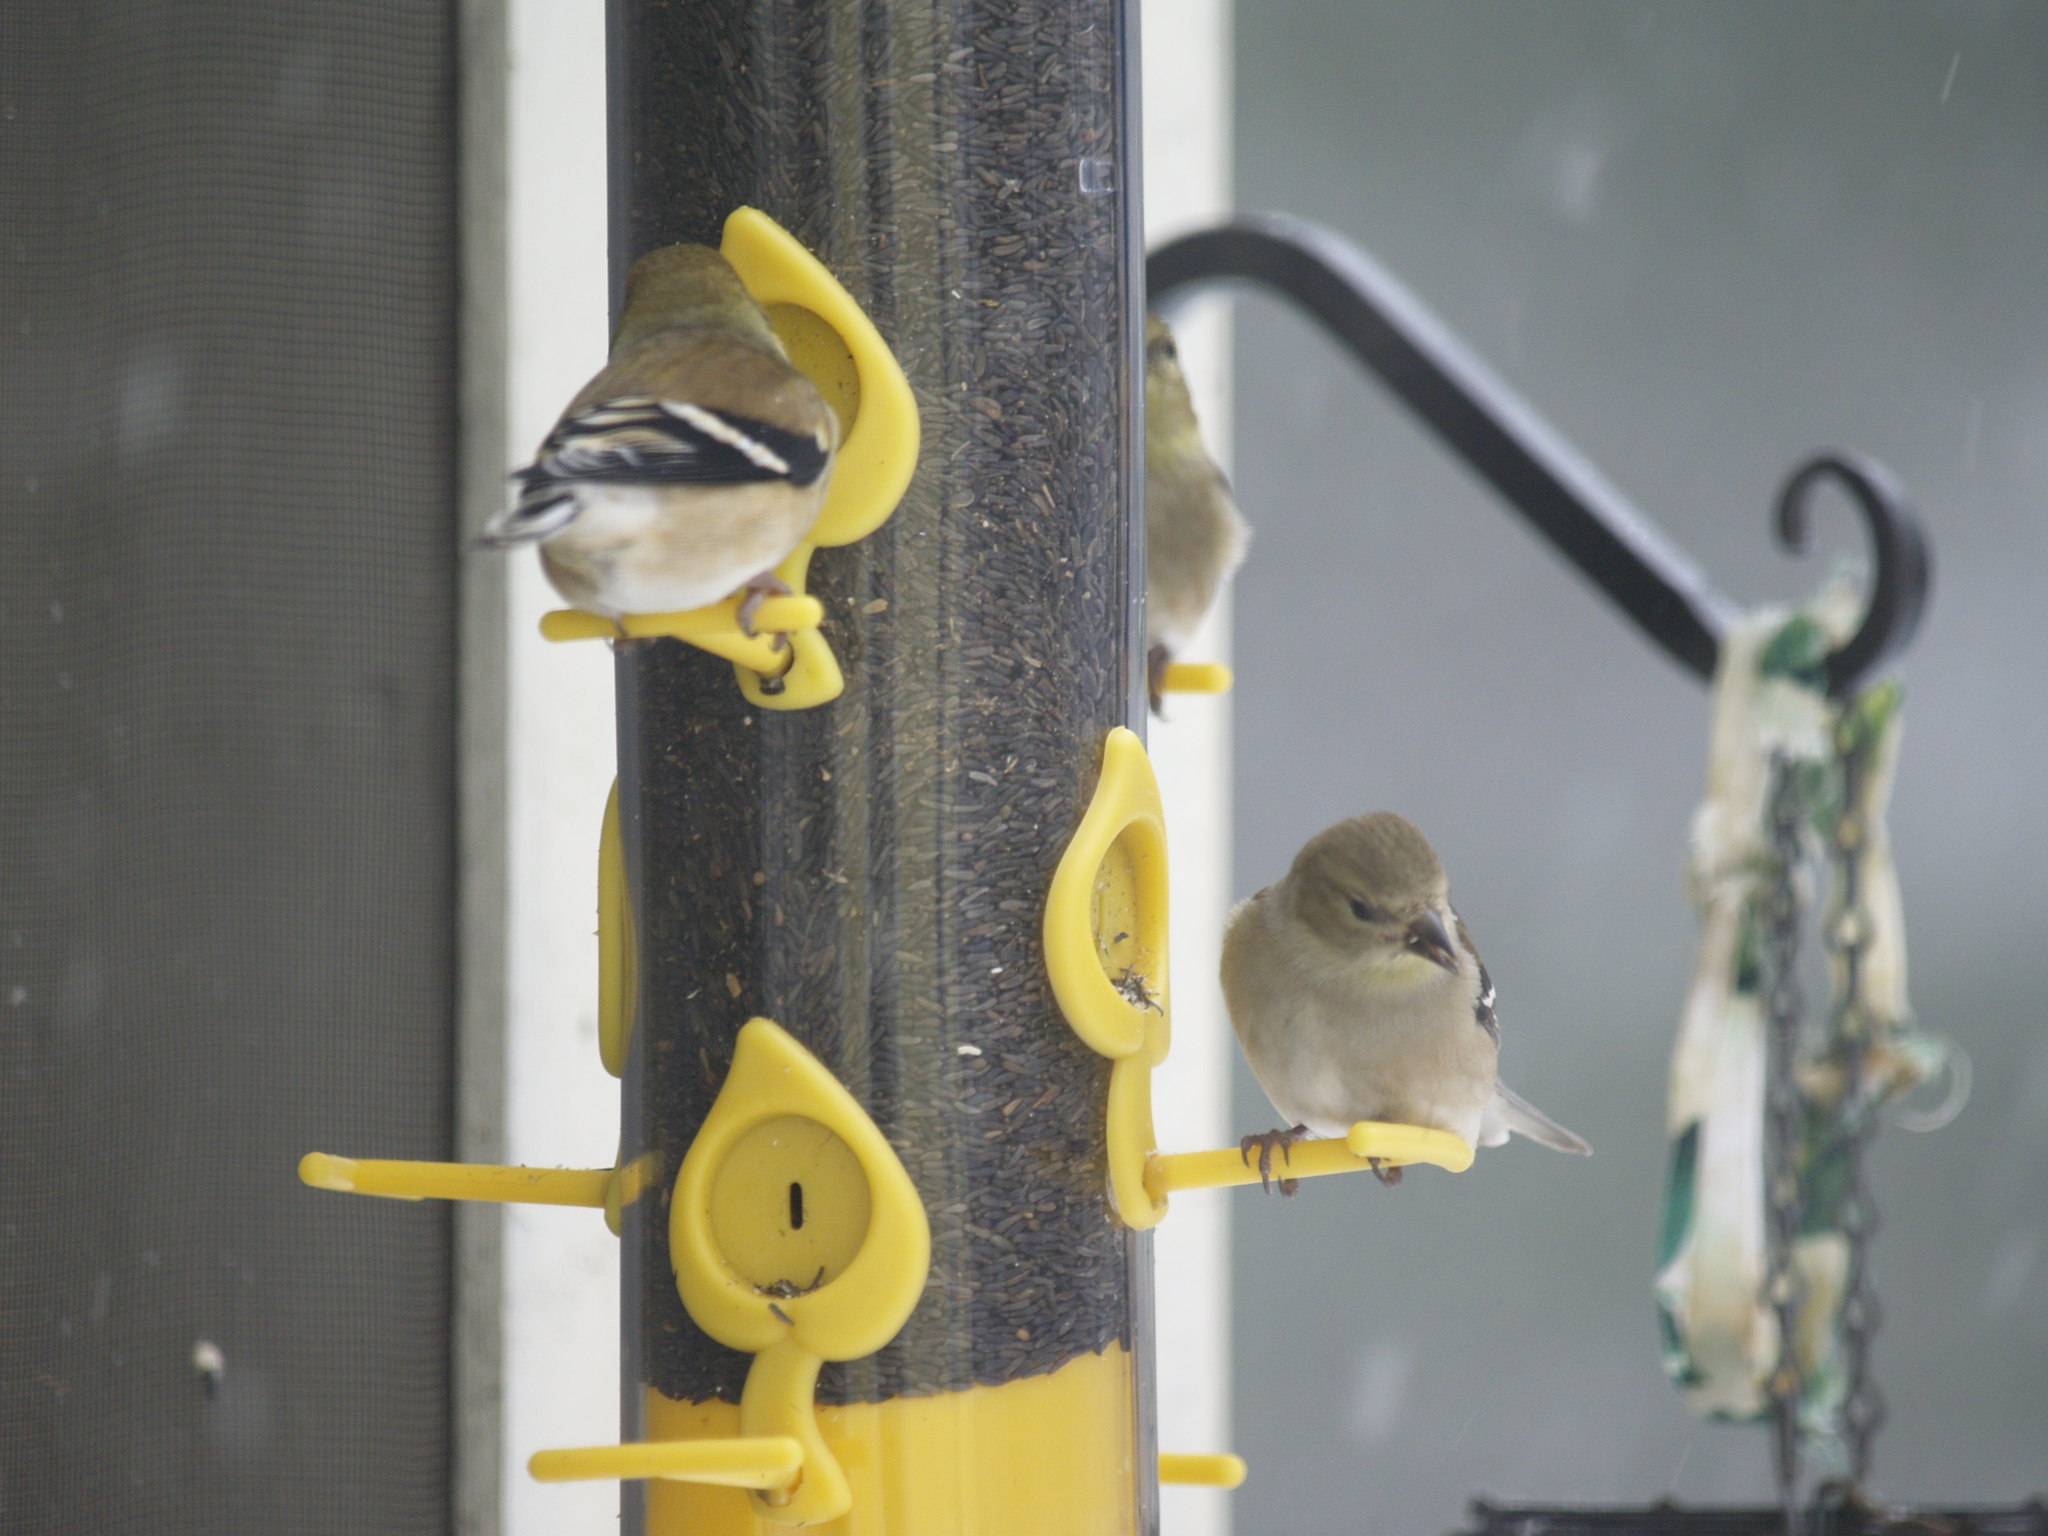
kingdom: Animalia
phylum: Chordata
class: Aves
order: Passeriformes
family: Fringillidae
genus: Spinus
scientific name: Spinus tristis
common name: American goldfinch
